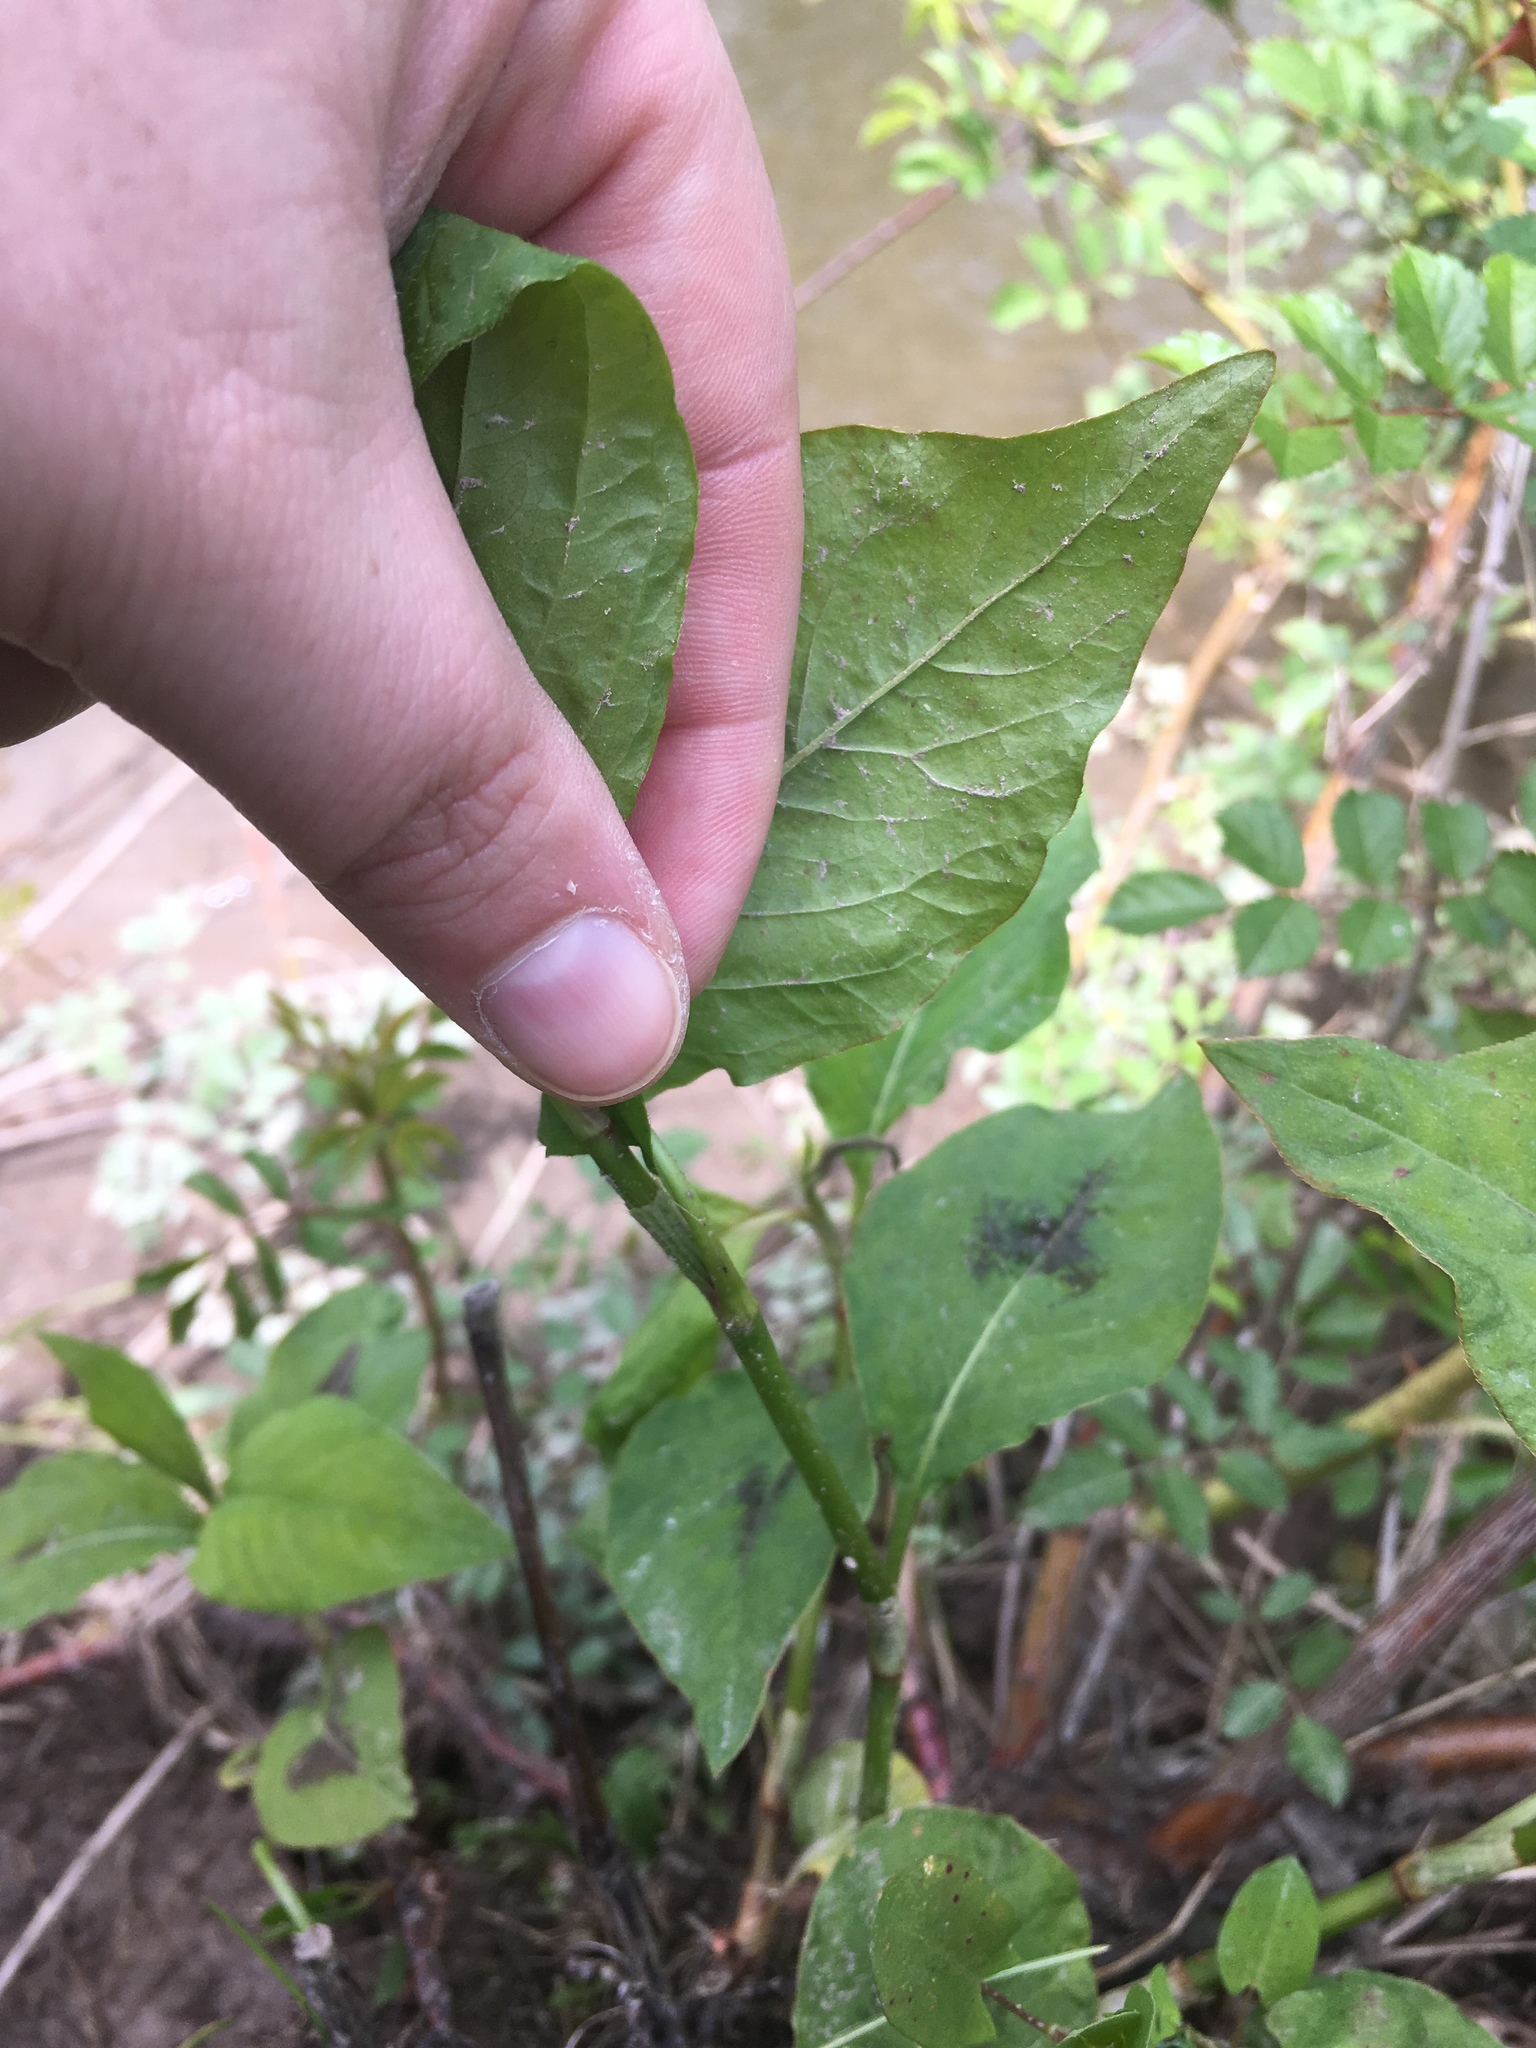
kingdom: Plantae
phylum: Tracheophyta
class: Magnoliopsida
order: Caryophyllales
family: Polygonaceae
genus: Persicaria
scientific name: Persicaria virginiana
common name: Jumpseed
